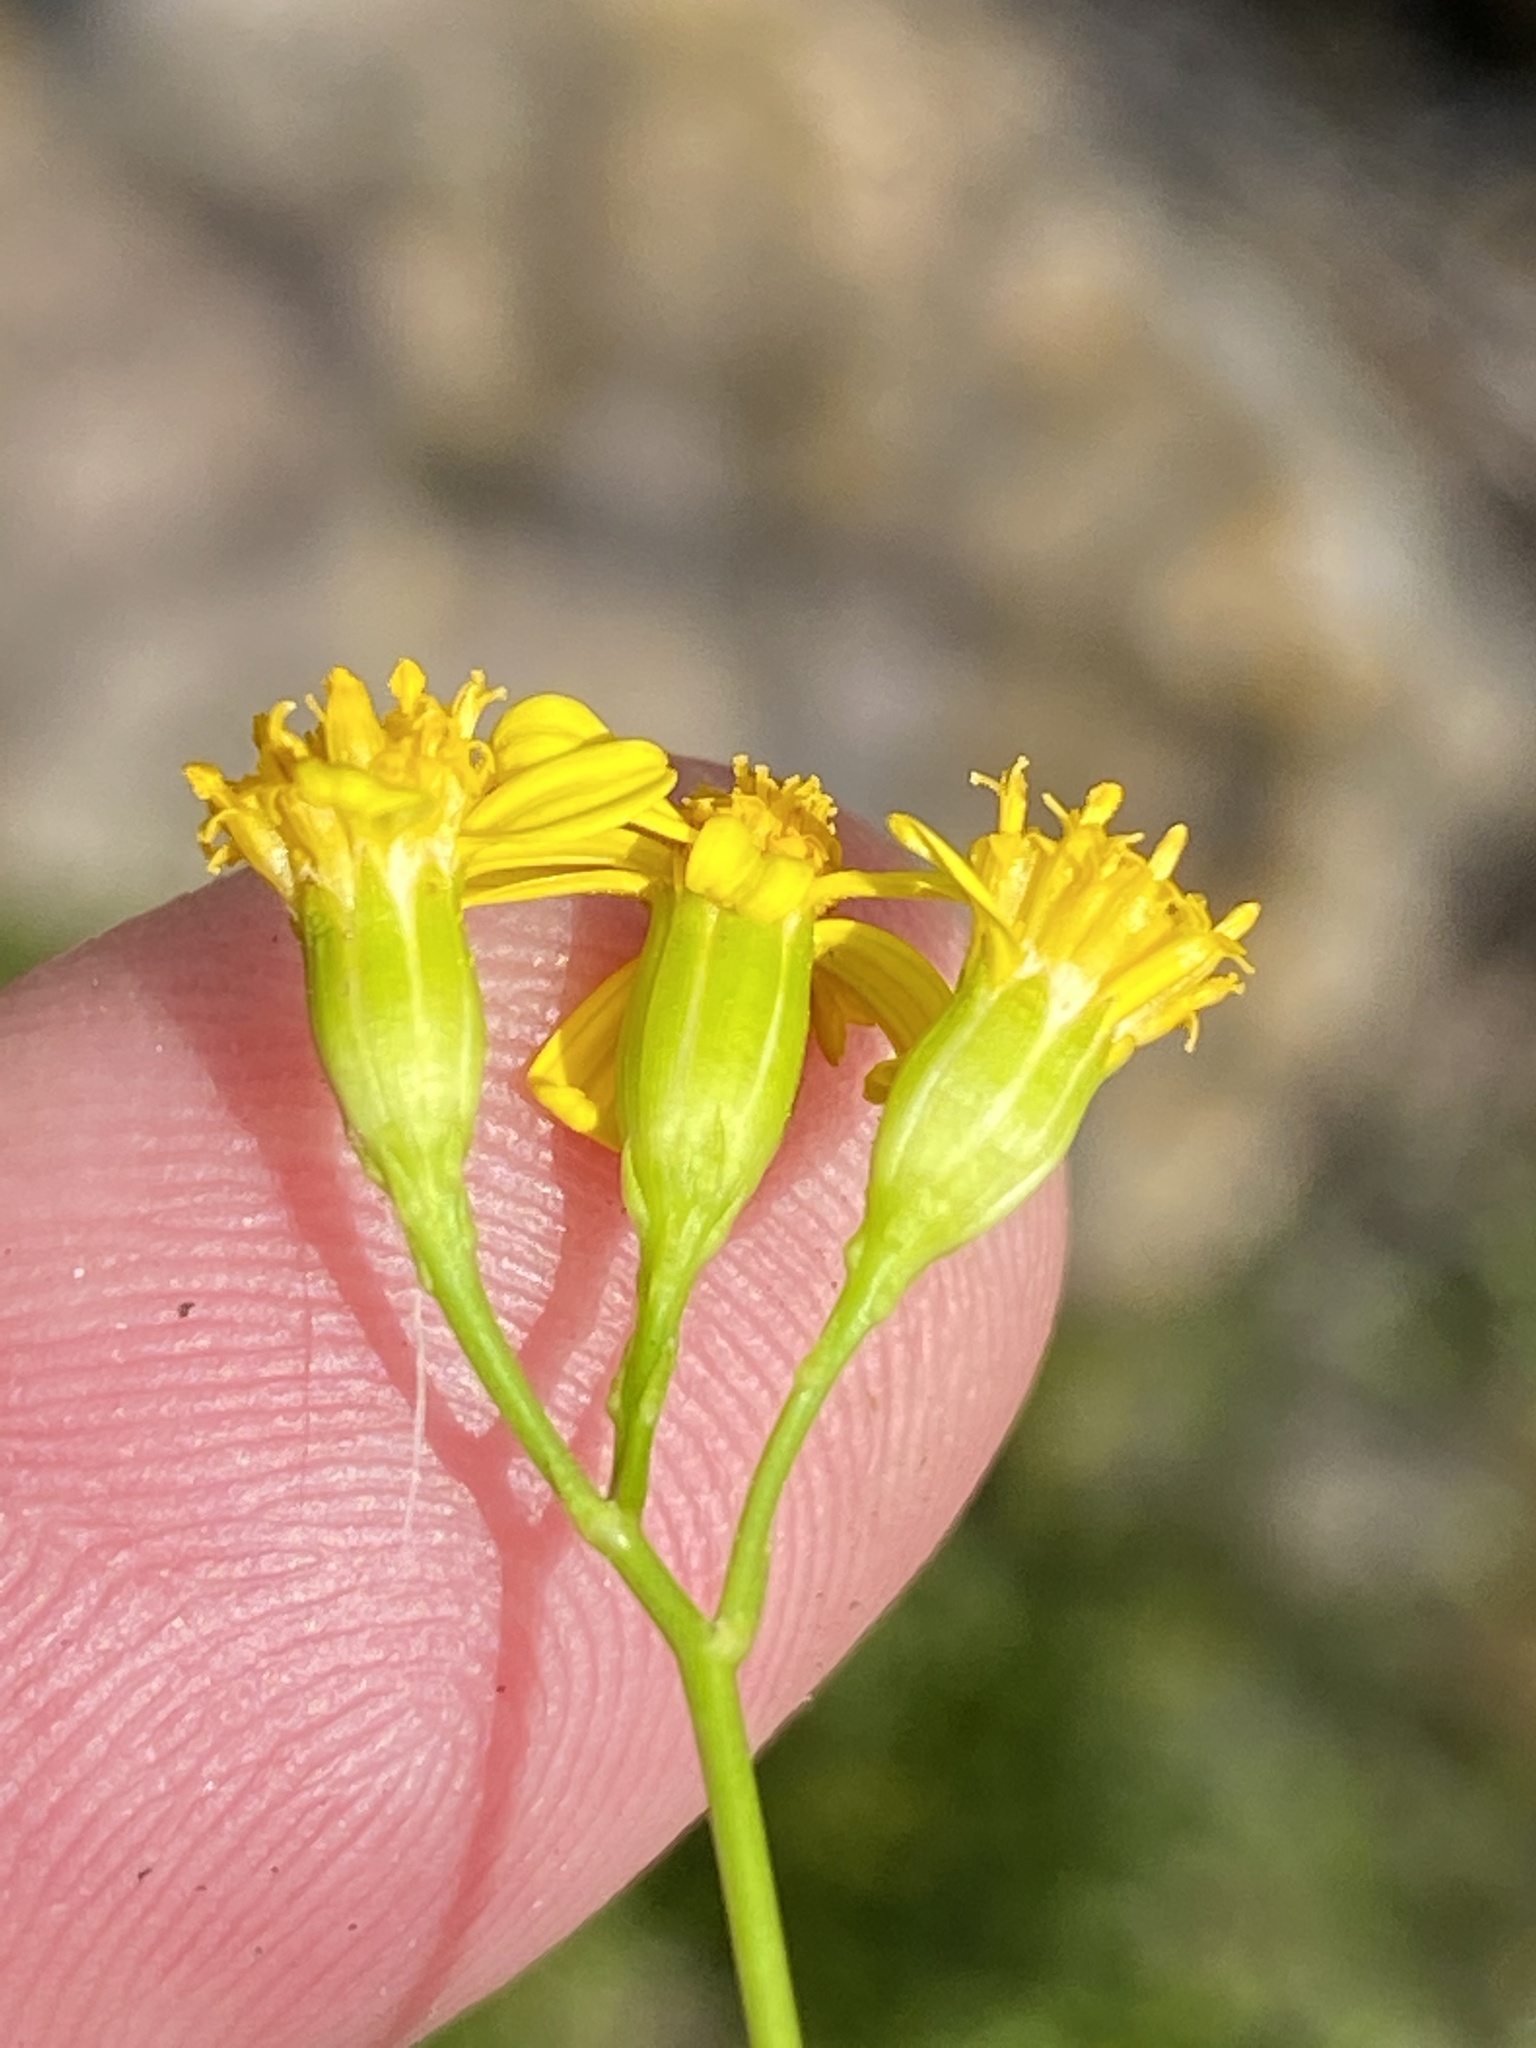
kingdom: Plantae
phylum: Tracheophyta
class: Magnoliopsida
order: Asterales
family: Asteraceae
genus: Cineraria
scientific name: Cineraria saxifraga
